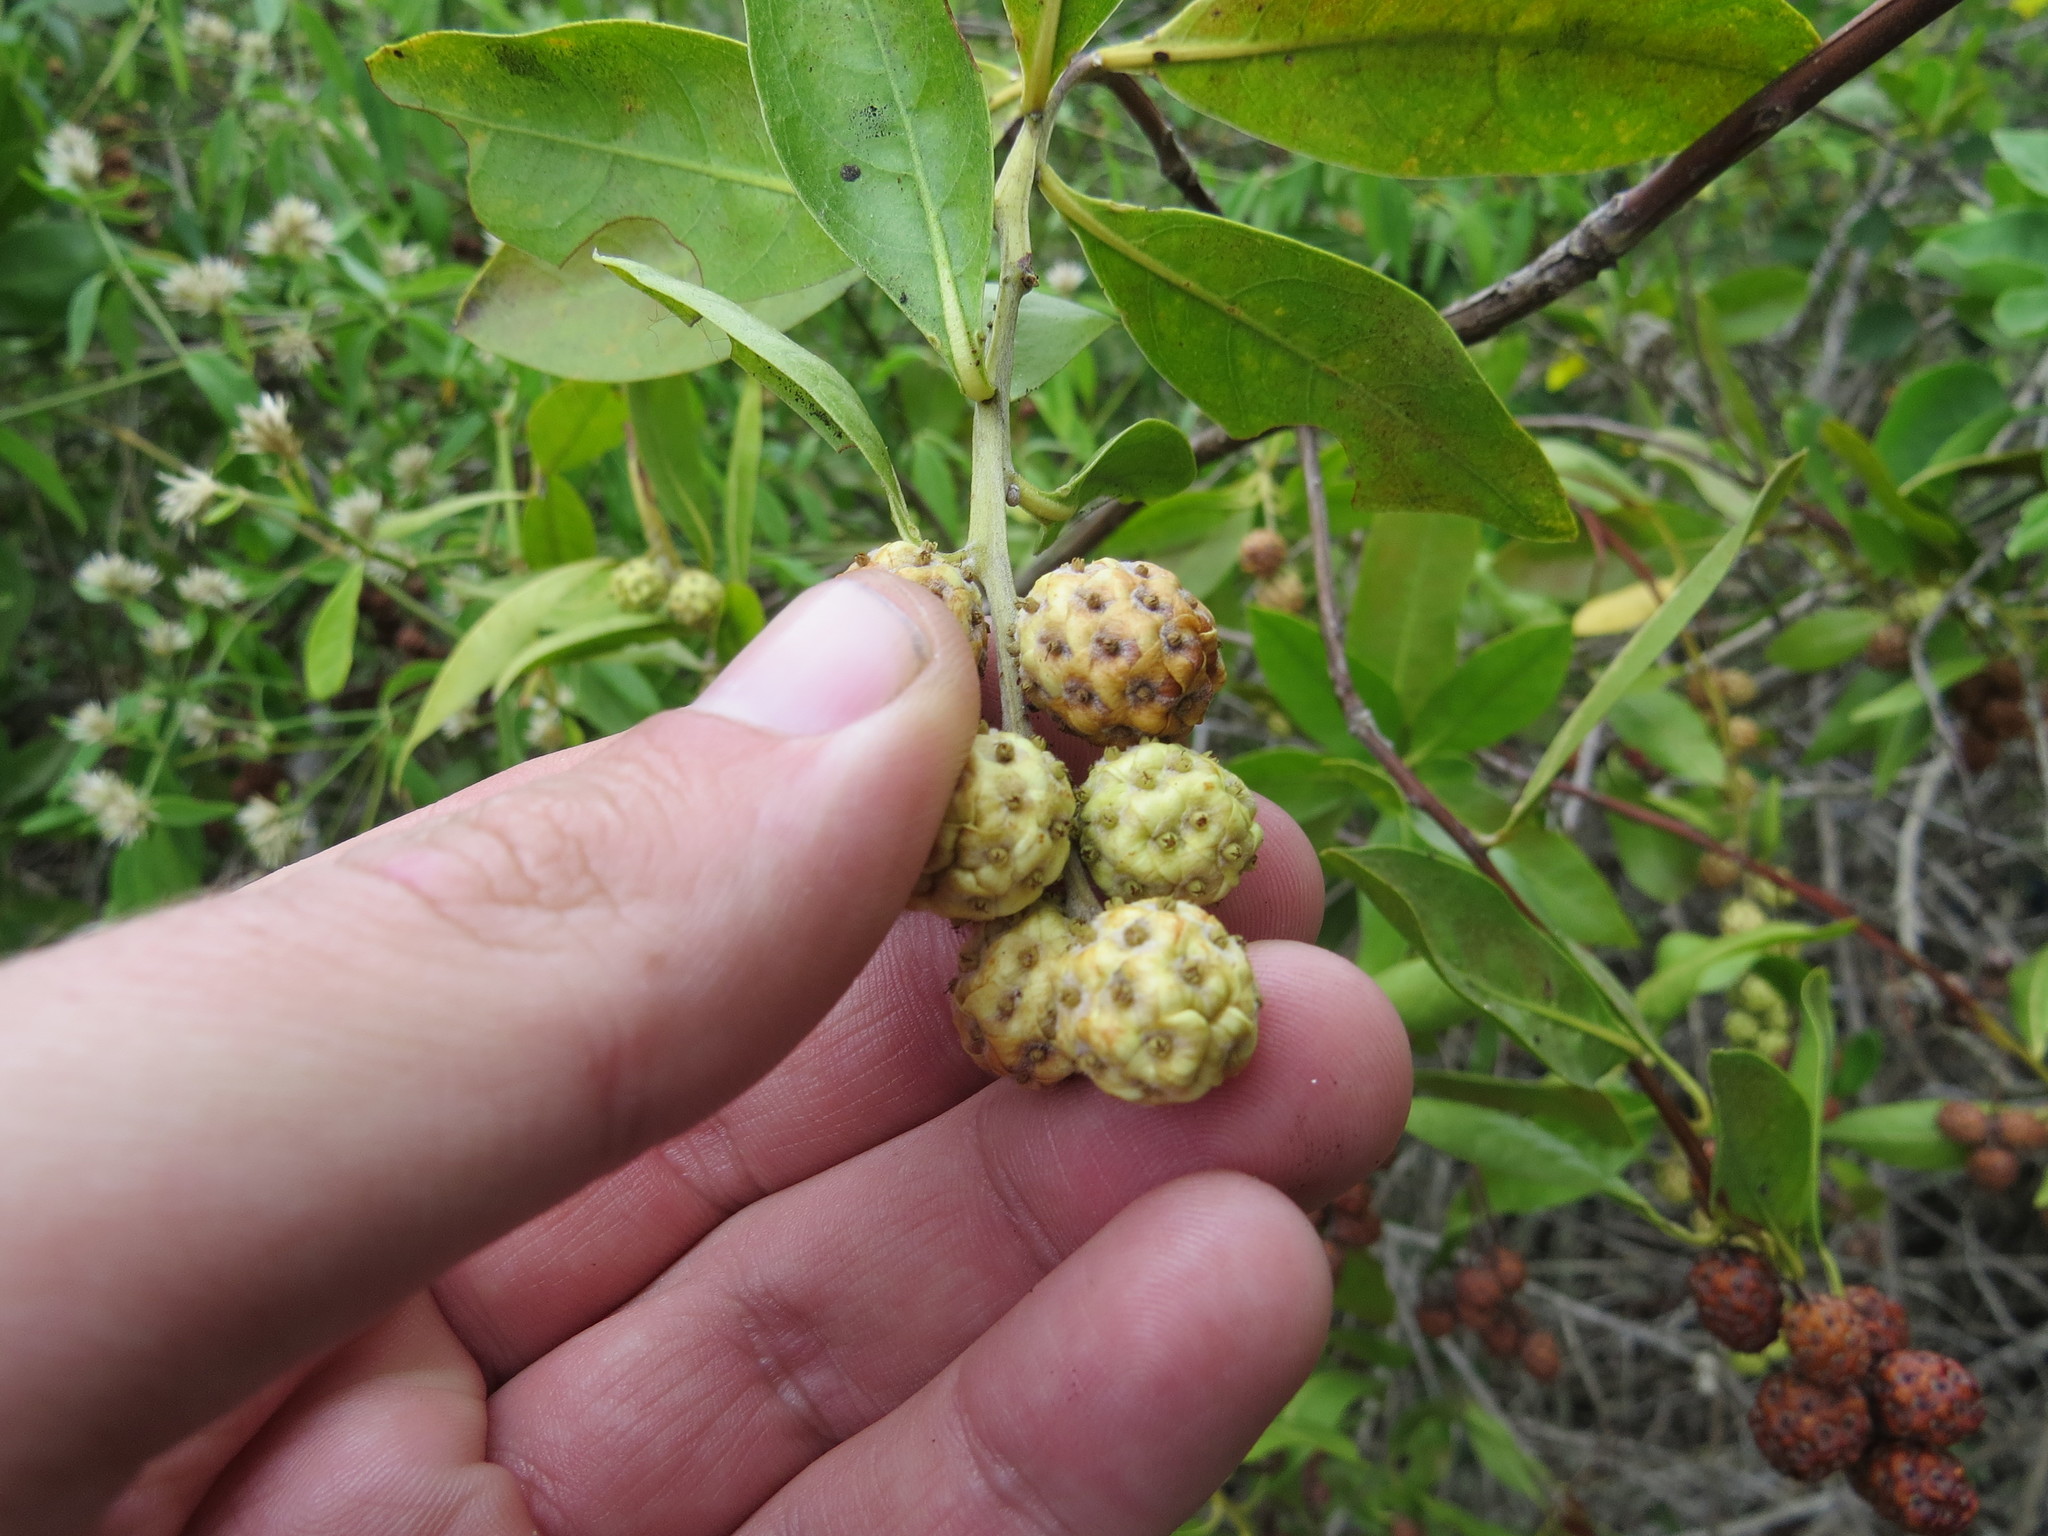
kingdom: Plantae
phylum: Tracheophyta
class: Magnoliopsida
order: Myrtales
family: Combretaceae
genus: Conocarpus
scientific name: Conocarpus erectus
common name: Button mangrove
